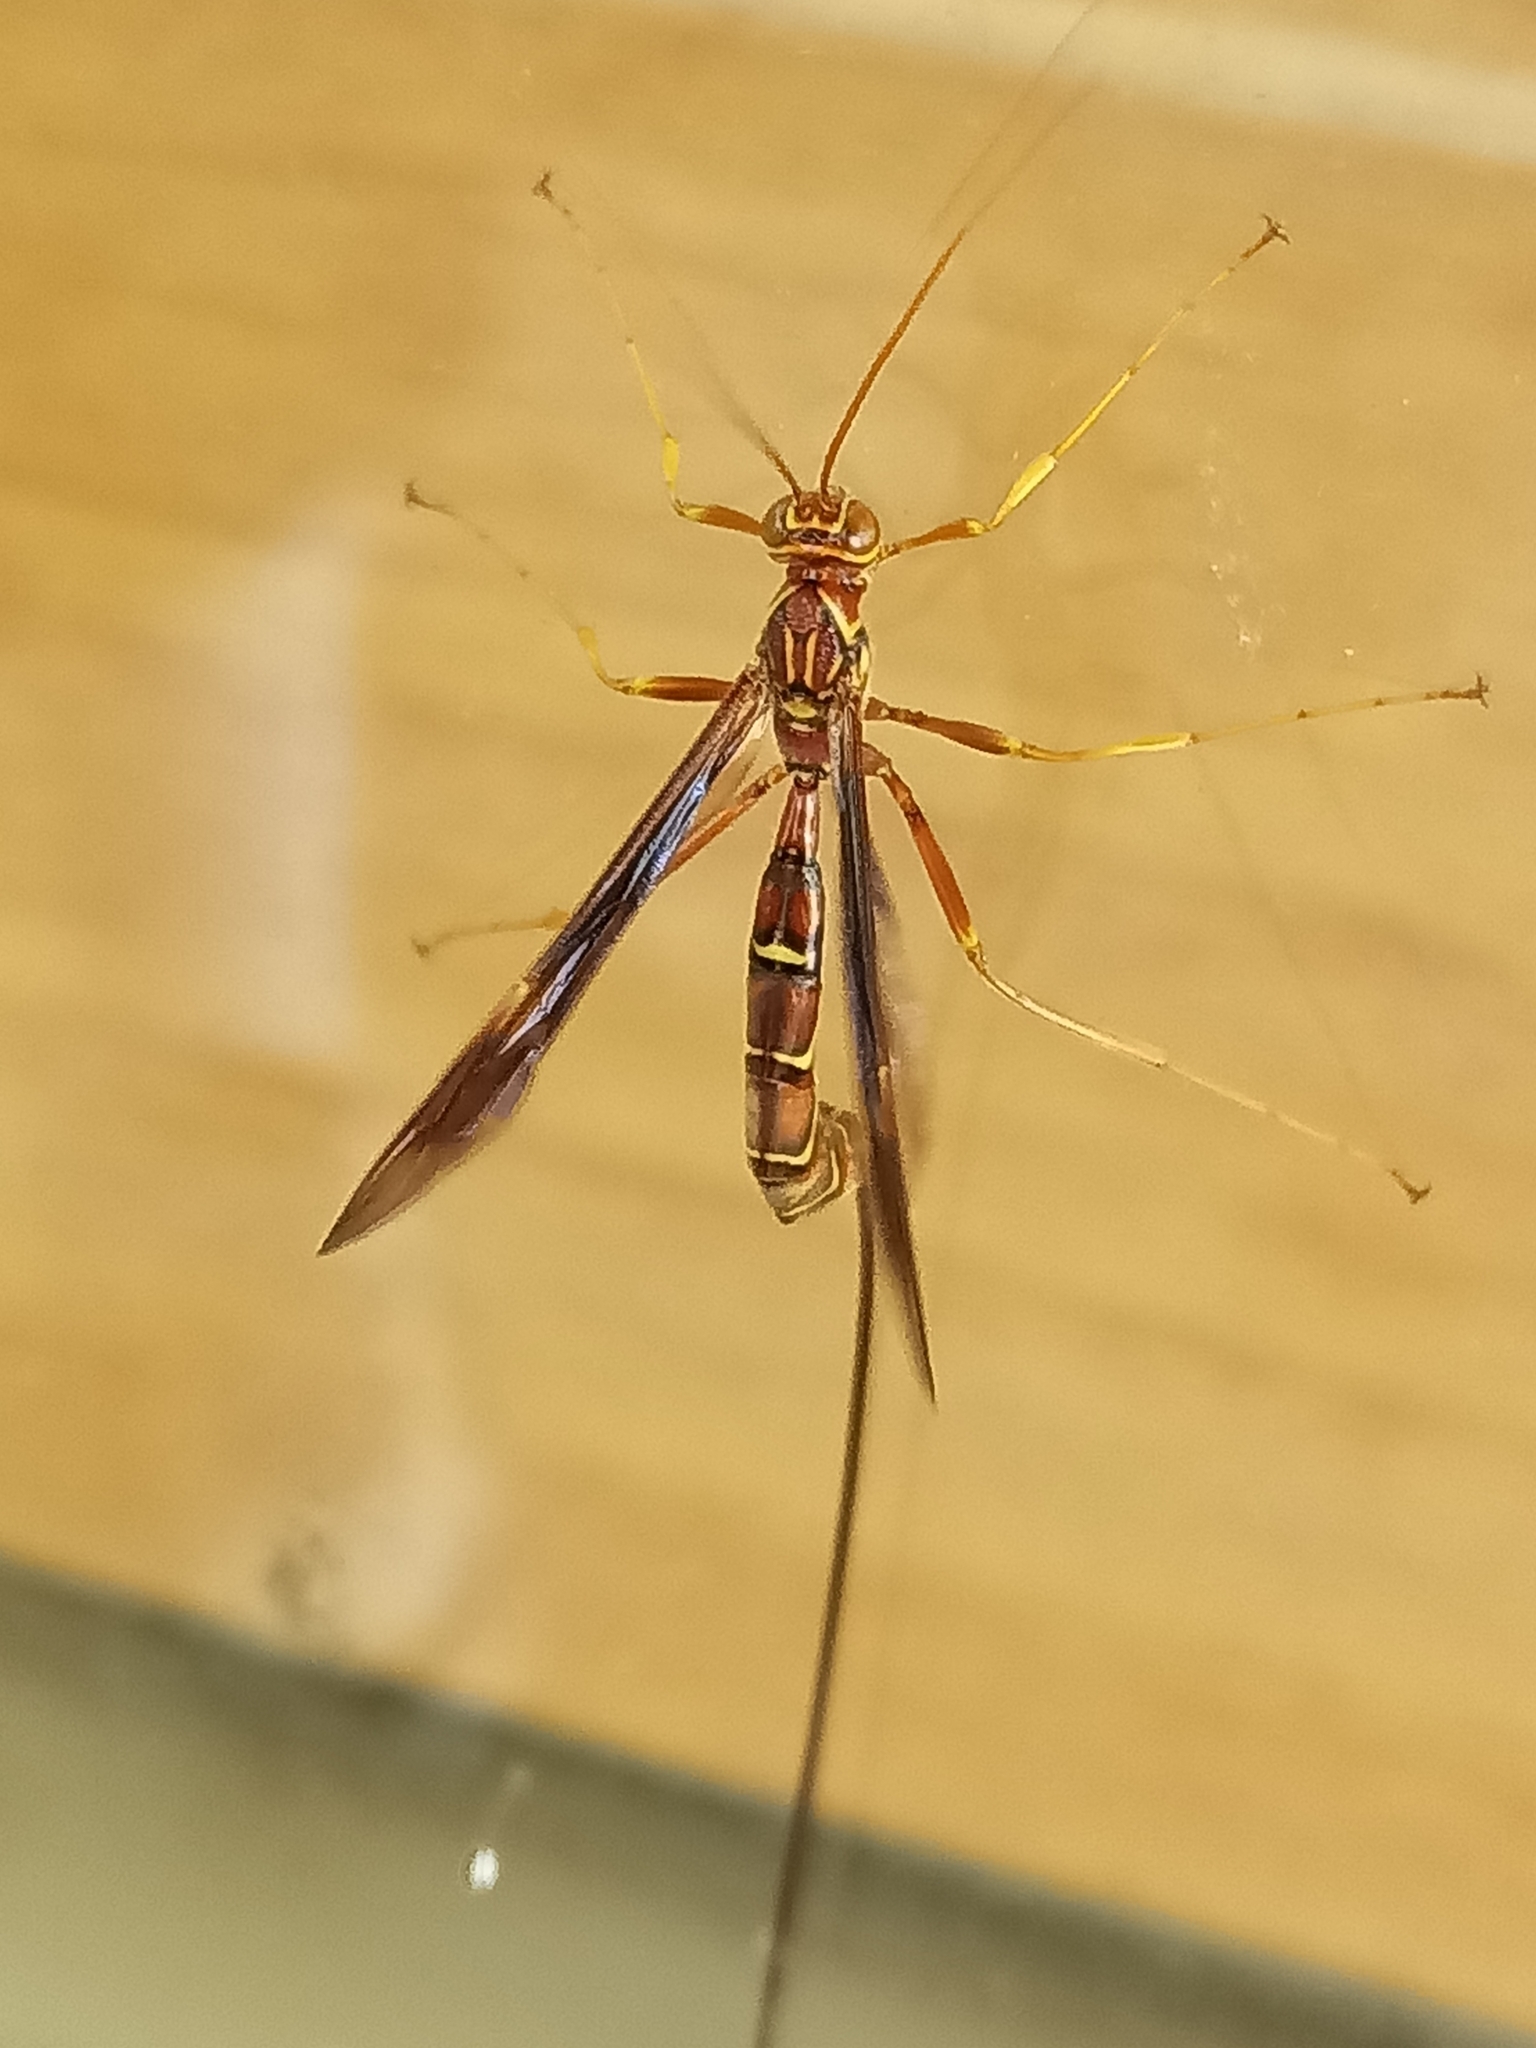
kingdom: Animalia
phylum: Arthropoda
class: Insecta
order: Hymenoptera
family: Ichneumonidae
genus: Megarhyssa
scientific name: Megarhyssa macrura
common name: Long-tailed giant ichneumonid wasp
